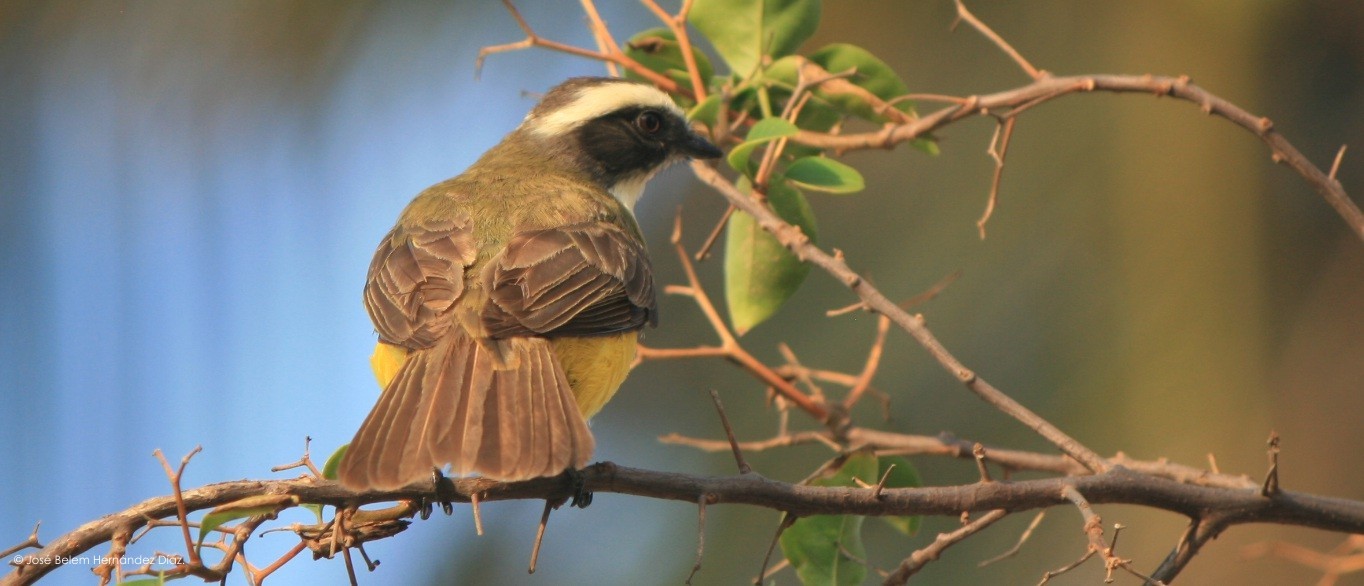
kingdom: Animalia
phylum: Chordata
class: Aves
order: Passeriformes
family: Tyrannidae
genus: Myiozetetes
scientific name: Myiozetetes similis
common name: Social flycatcher
